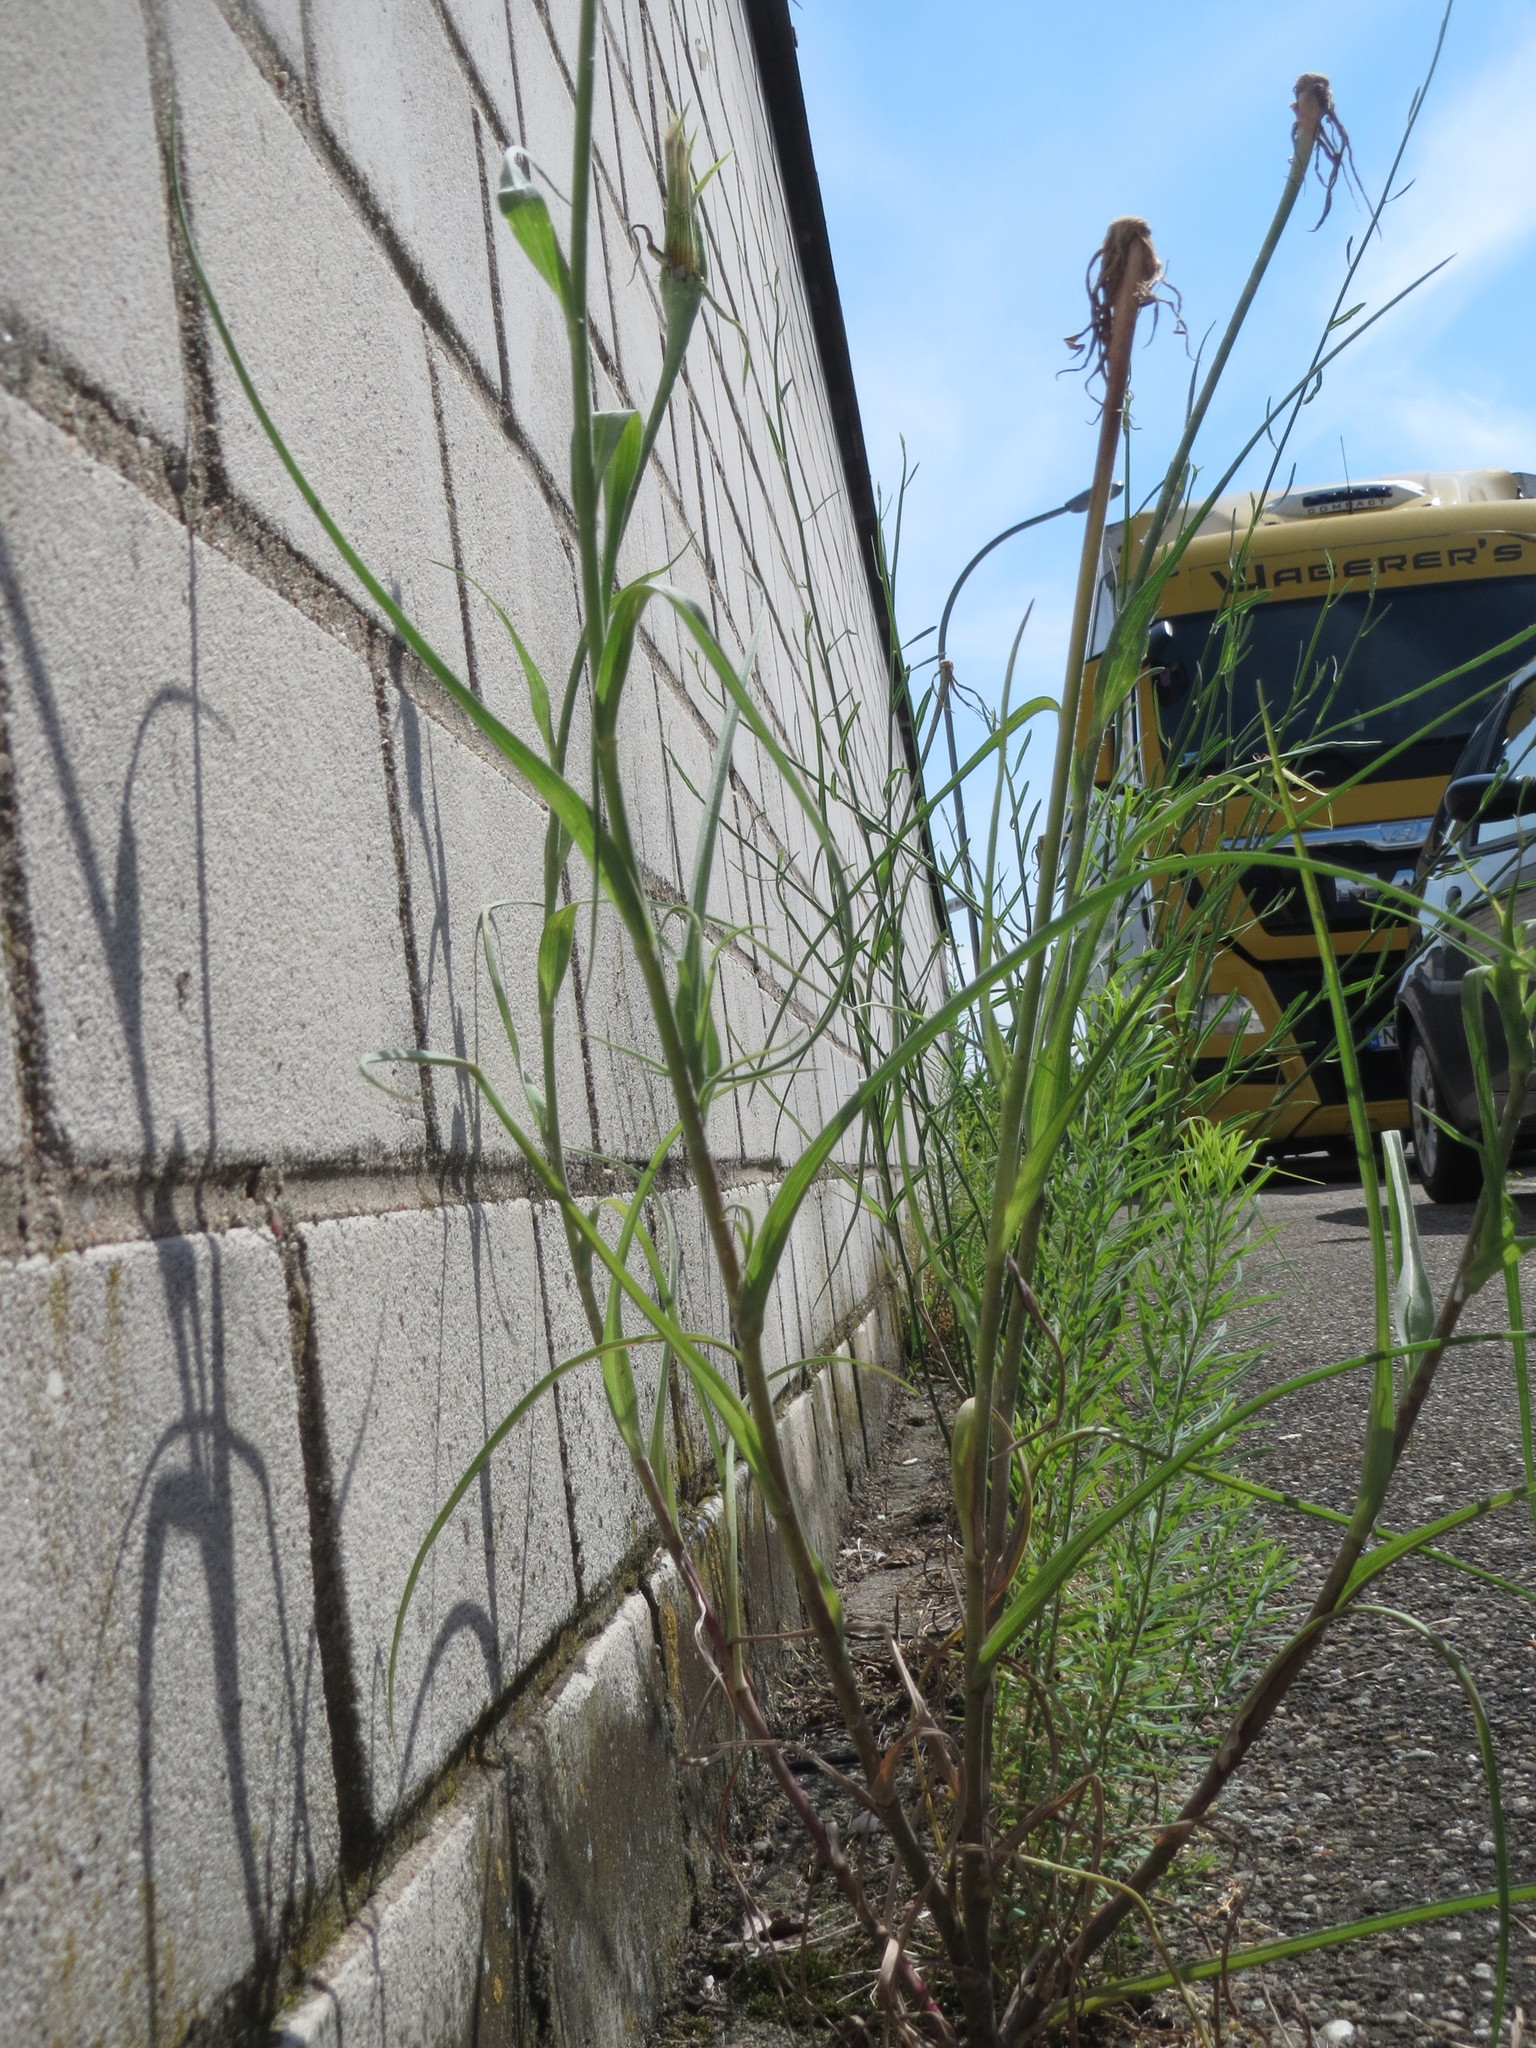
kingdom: Plantae
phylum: Tracheophyta
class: Magnoliopsida
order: Asterales
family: Asteraceae
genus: Tragopogon
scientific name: Tragopogon dubius
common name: Yellow salsify
